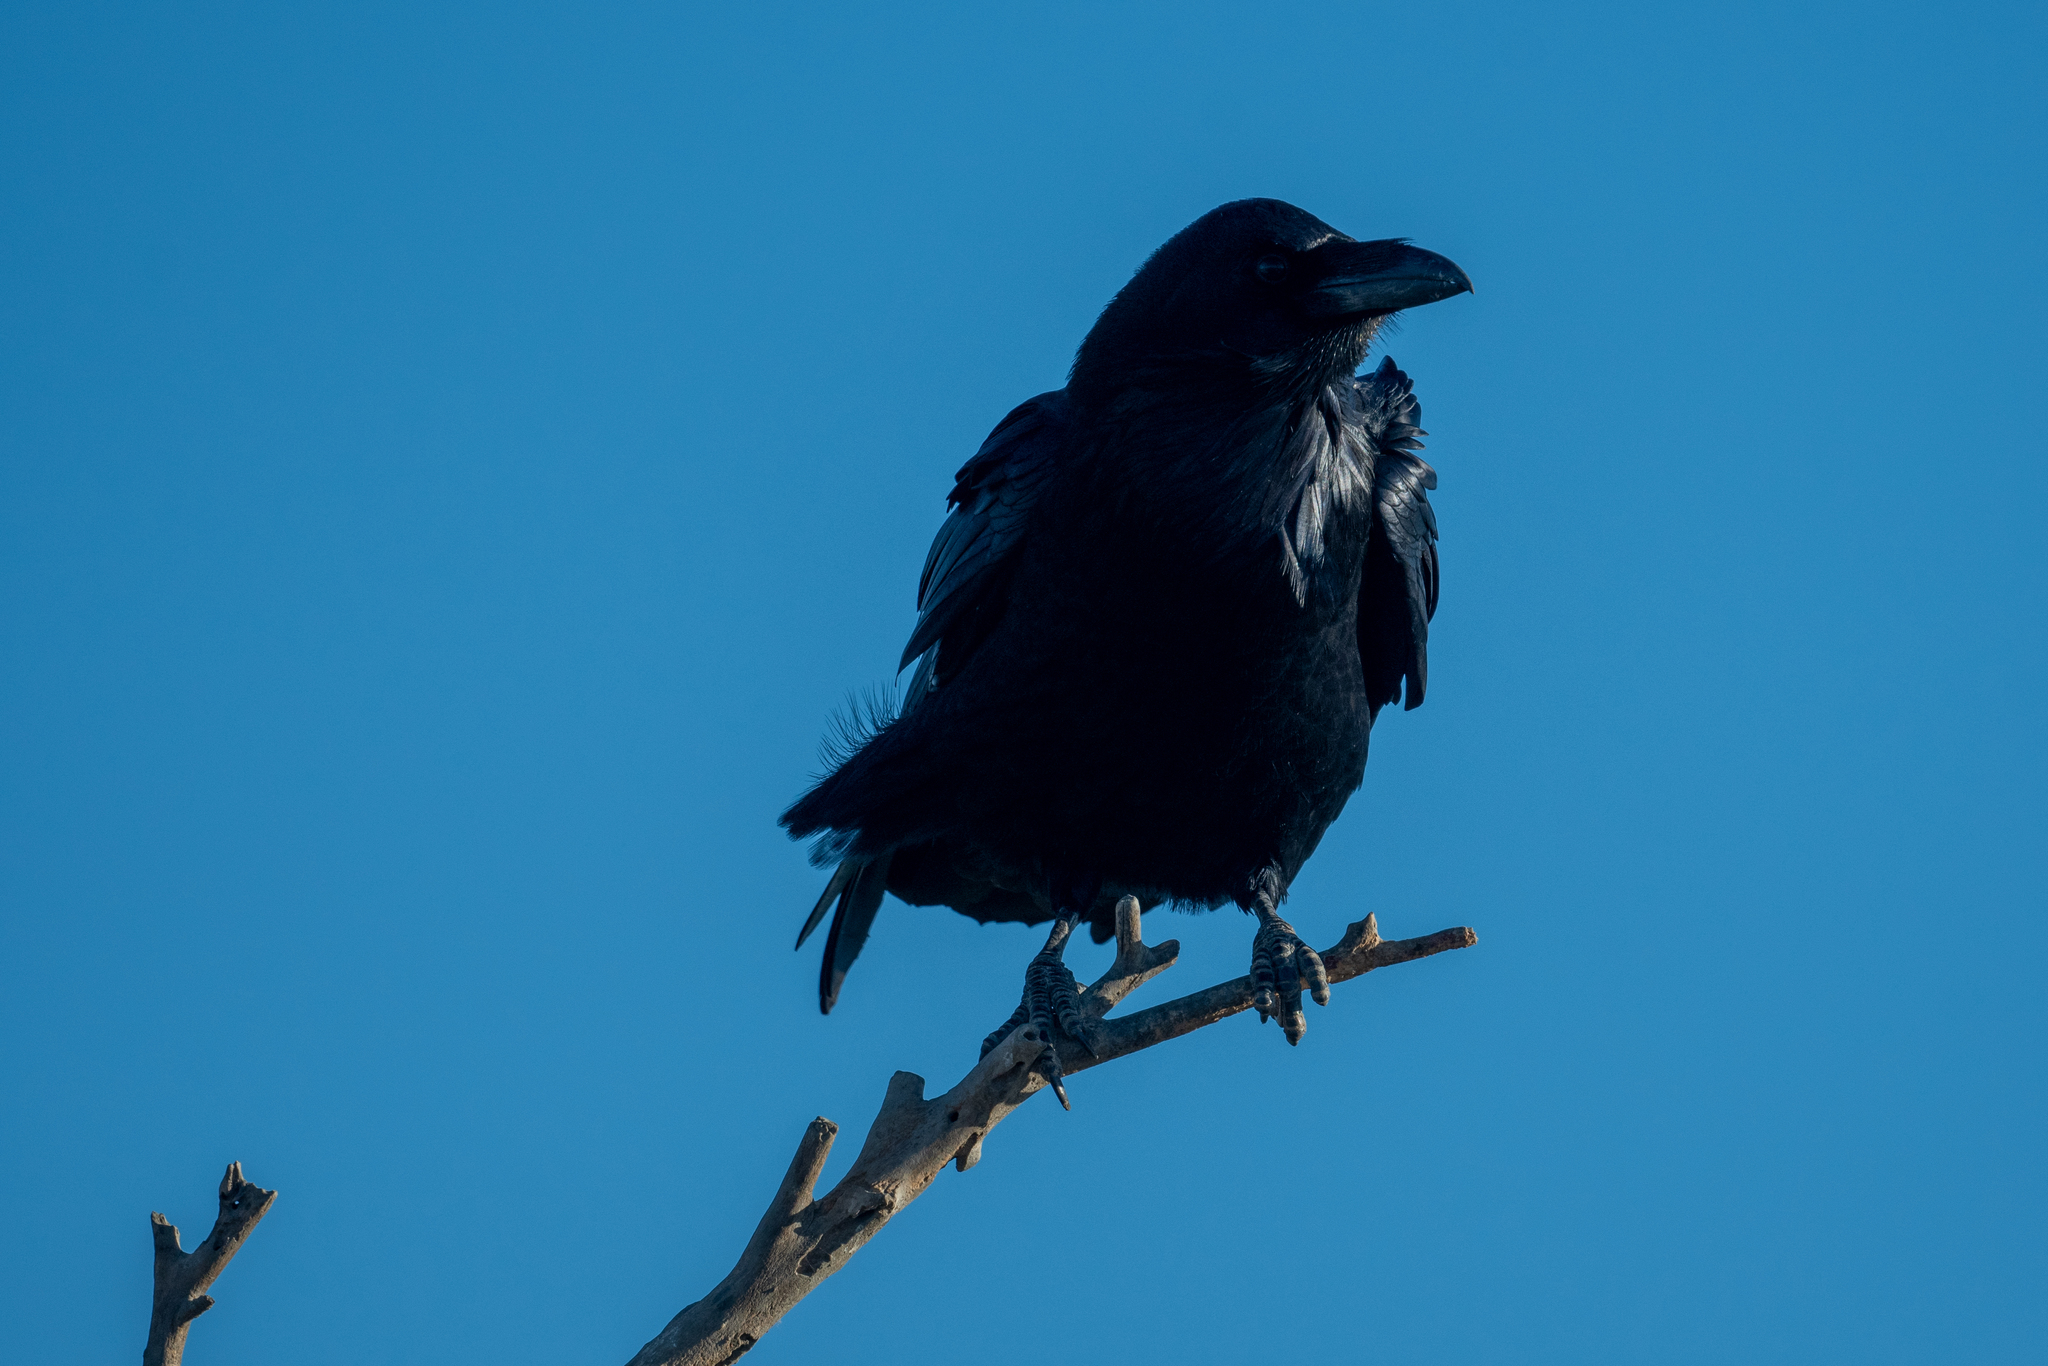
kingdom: Animalia
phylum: Chordata
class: Aves
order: Passeriformes
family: Corvidae
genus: Corvus
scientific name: Corvus corax
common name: Common raven
